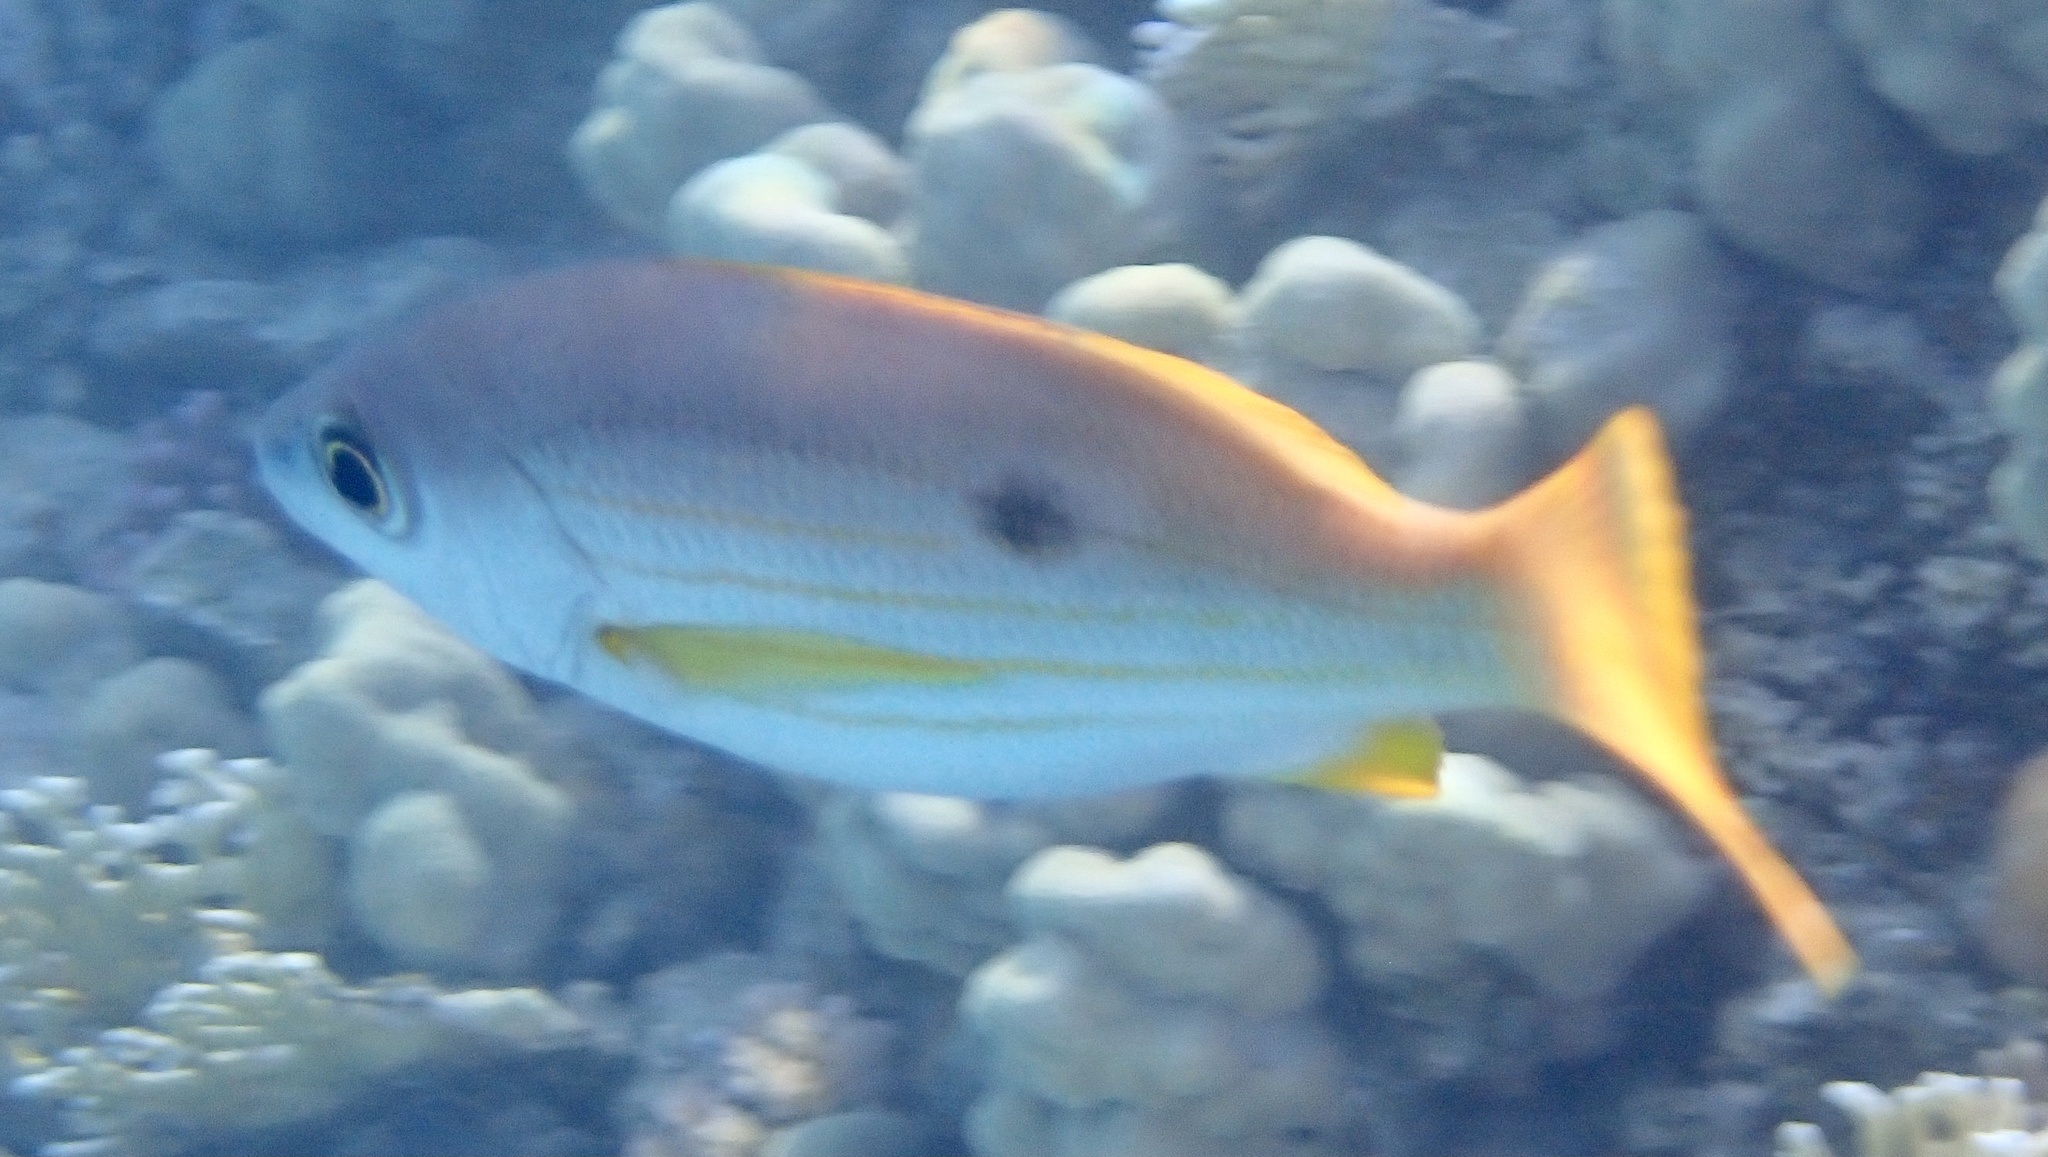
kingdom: Animalia
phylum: Chordata
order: Perciformes
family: Lutjanidae
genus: Lutjanus
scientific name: Lutjanus ehrenbergii
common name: Blackspot snapper
